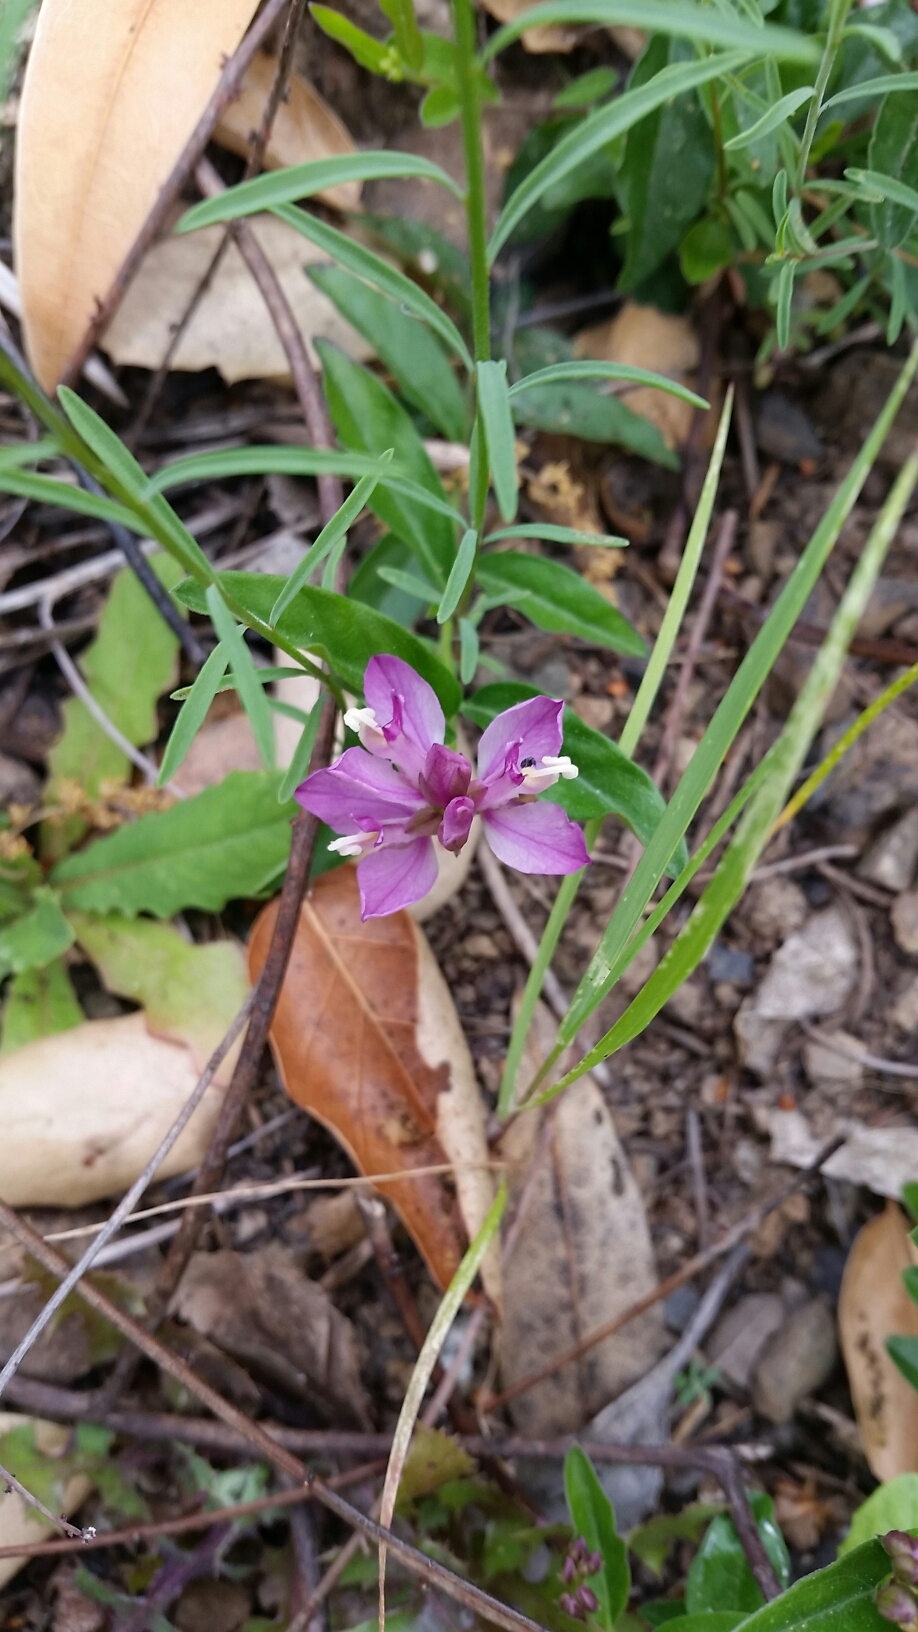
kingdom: Plantae
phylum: Tracheophyta
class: Magnoliopsida
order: Fabales
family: Polygalaceae
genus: Rhinotropis
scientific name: Rhinotropis californica
